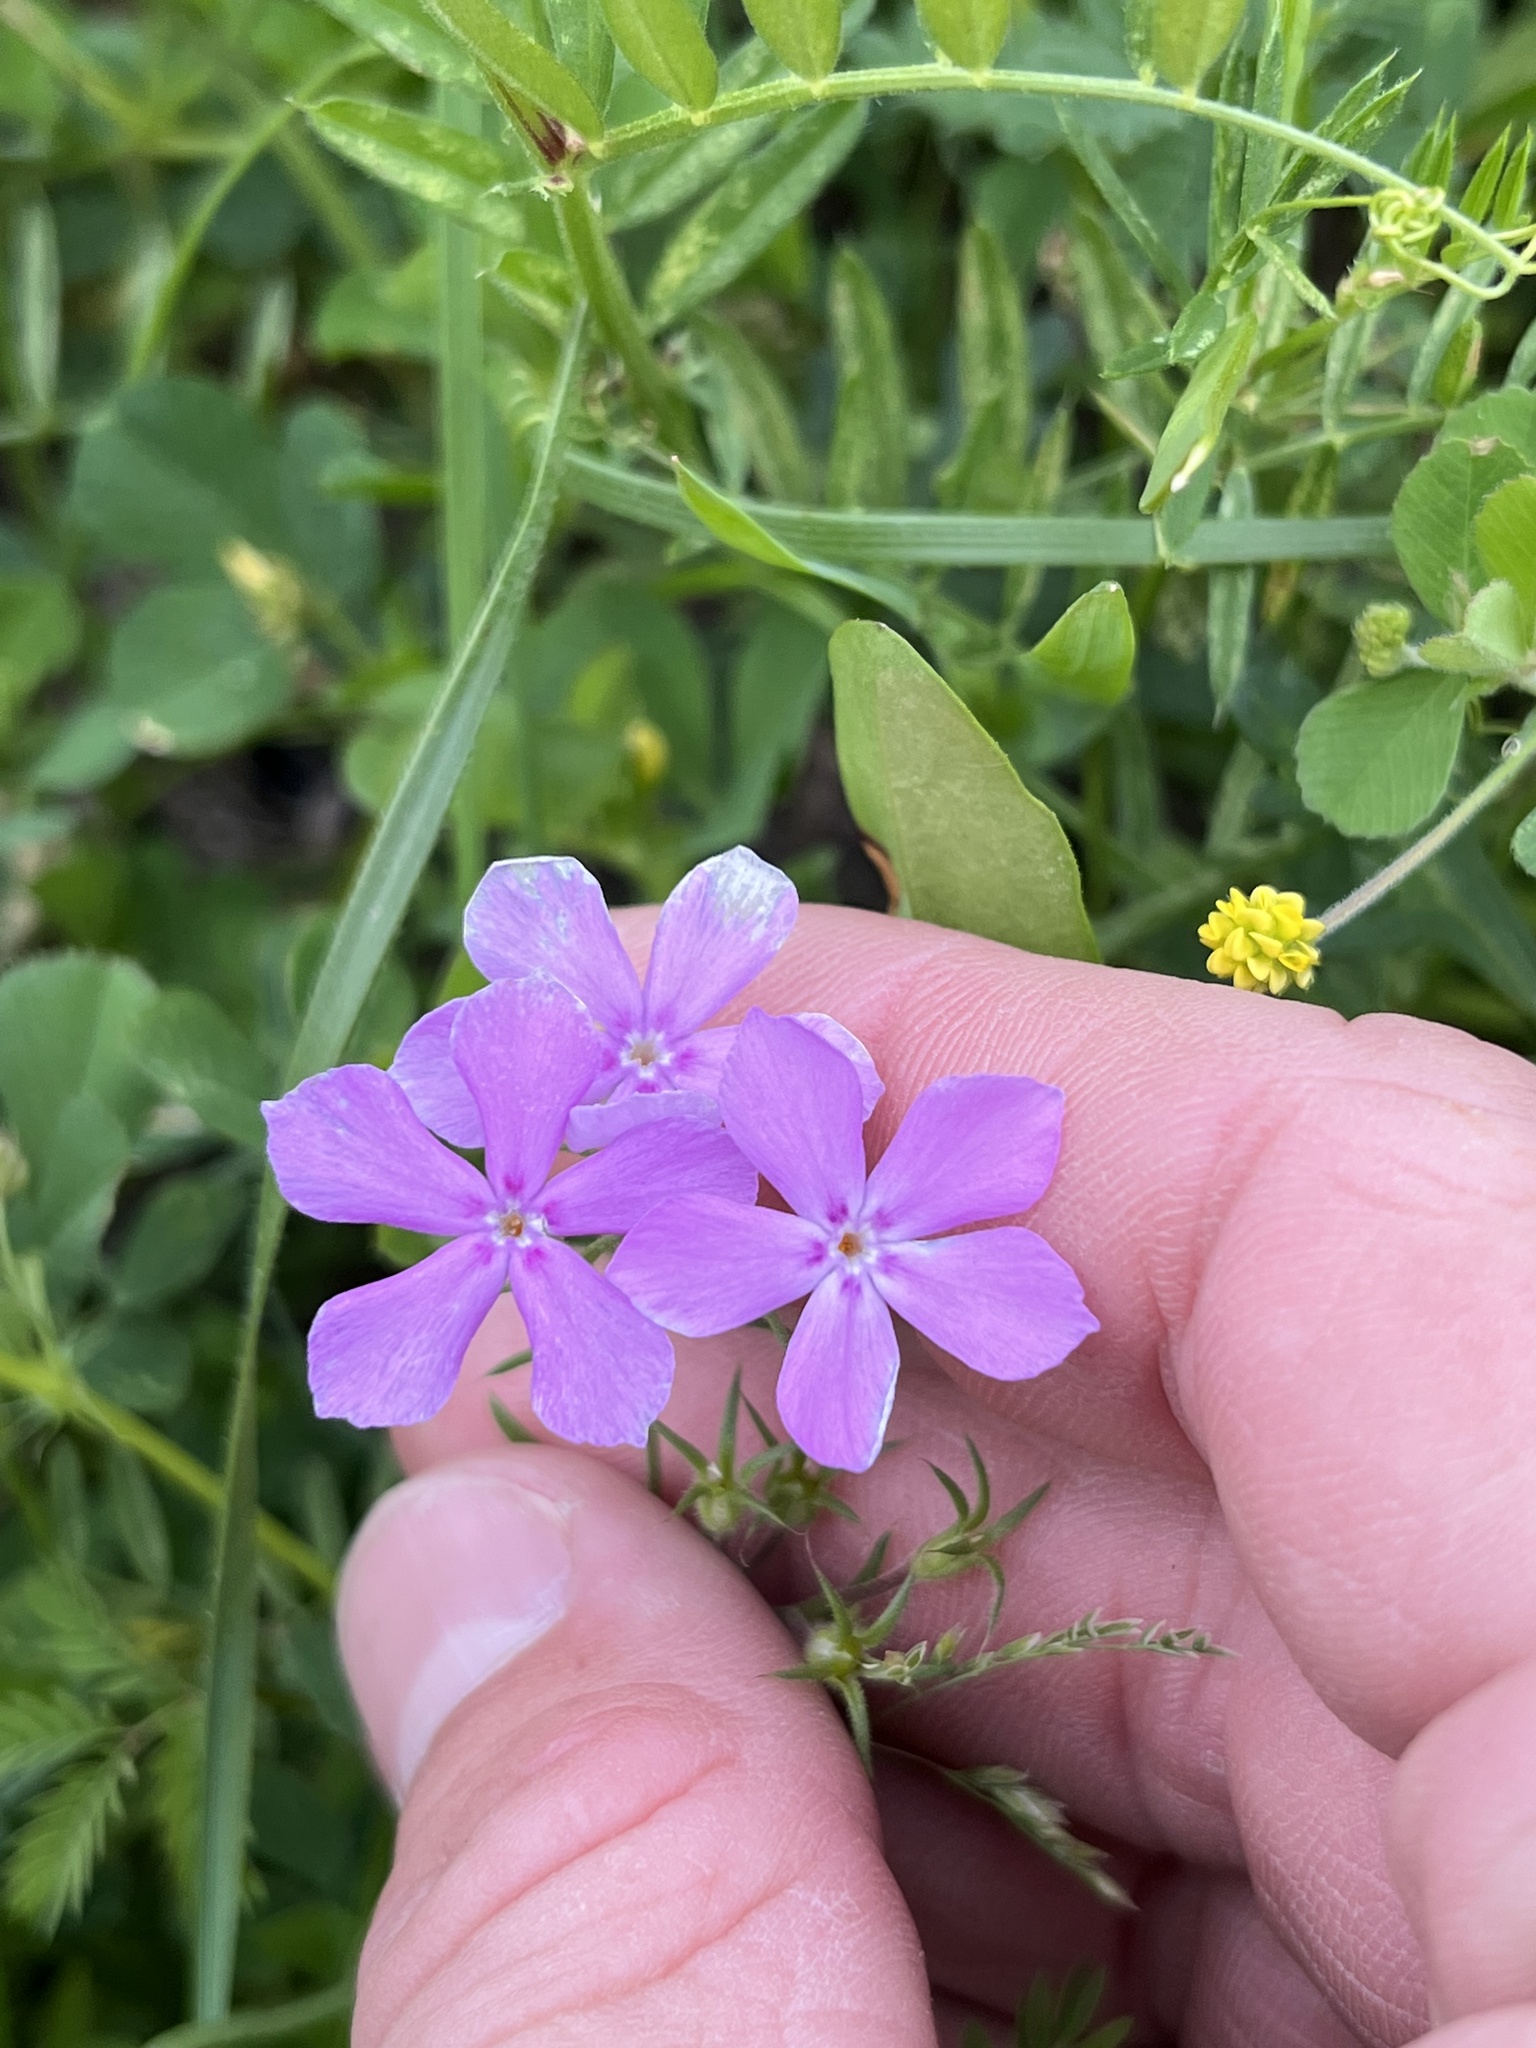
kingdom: Plantae
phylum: Tracheophyta
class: Magnoliopsida
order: Ericales
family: Polemoniaceae
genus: Phlox
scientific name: Phlox cuspidata
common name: Pointed phlox
